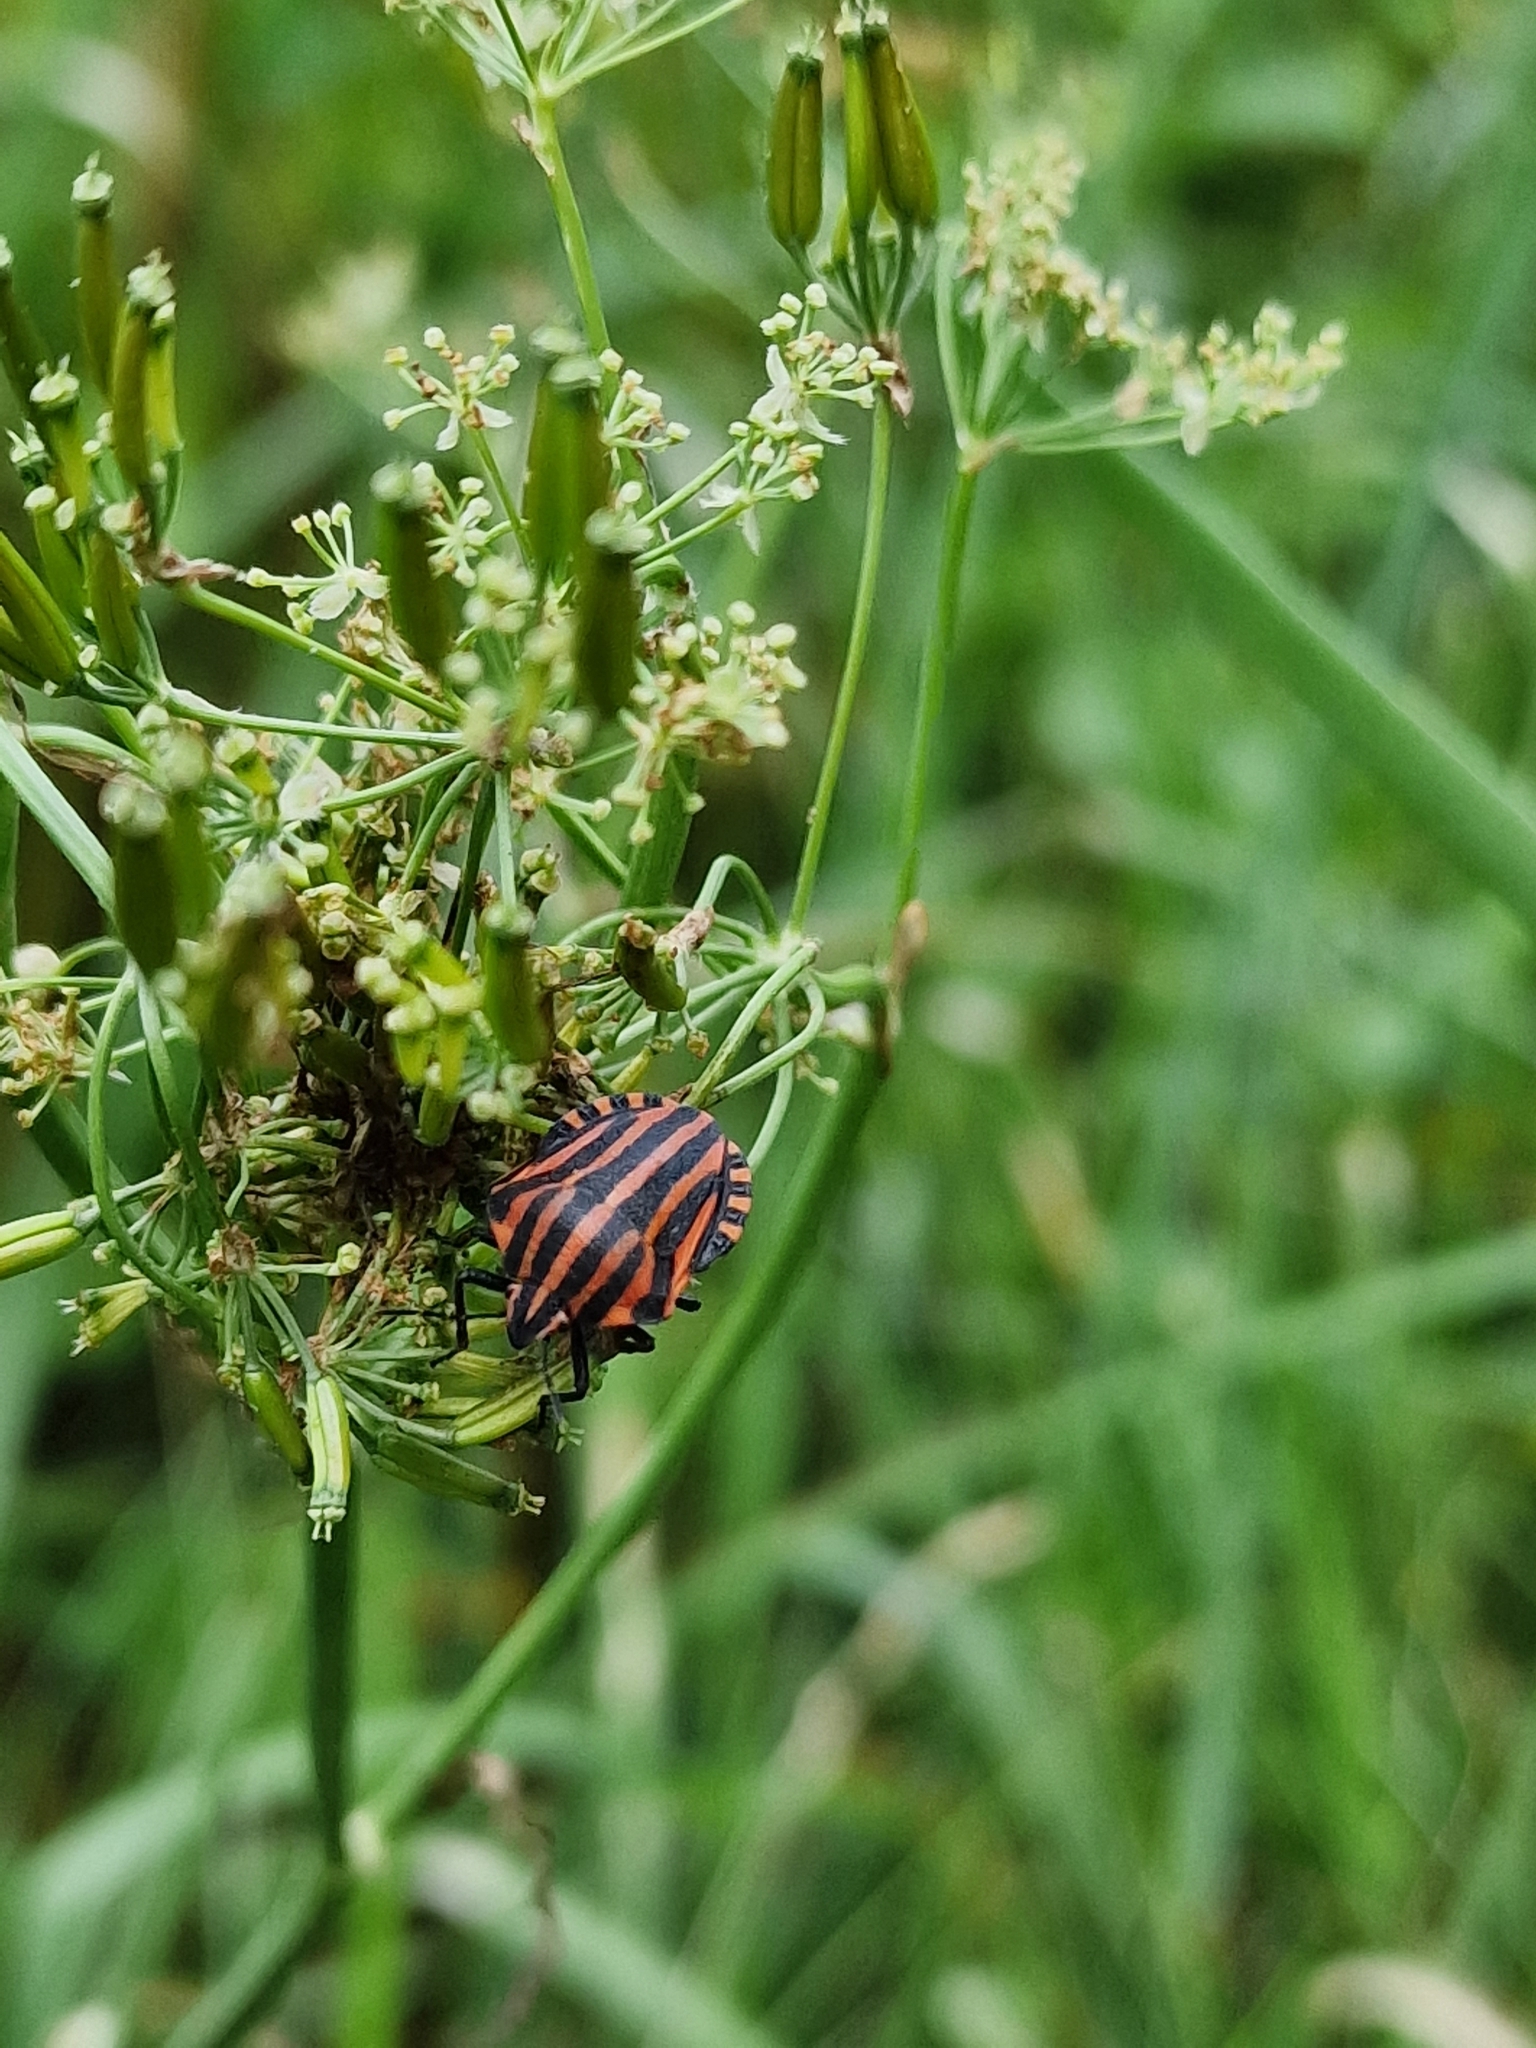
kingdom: Animalia
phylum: Arthropoda
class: Insecta
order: Hemiptera
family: Pentatomidae
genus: Graphosoma
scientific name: Graphosoma italicum
